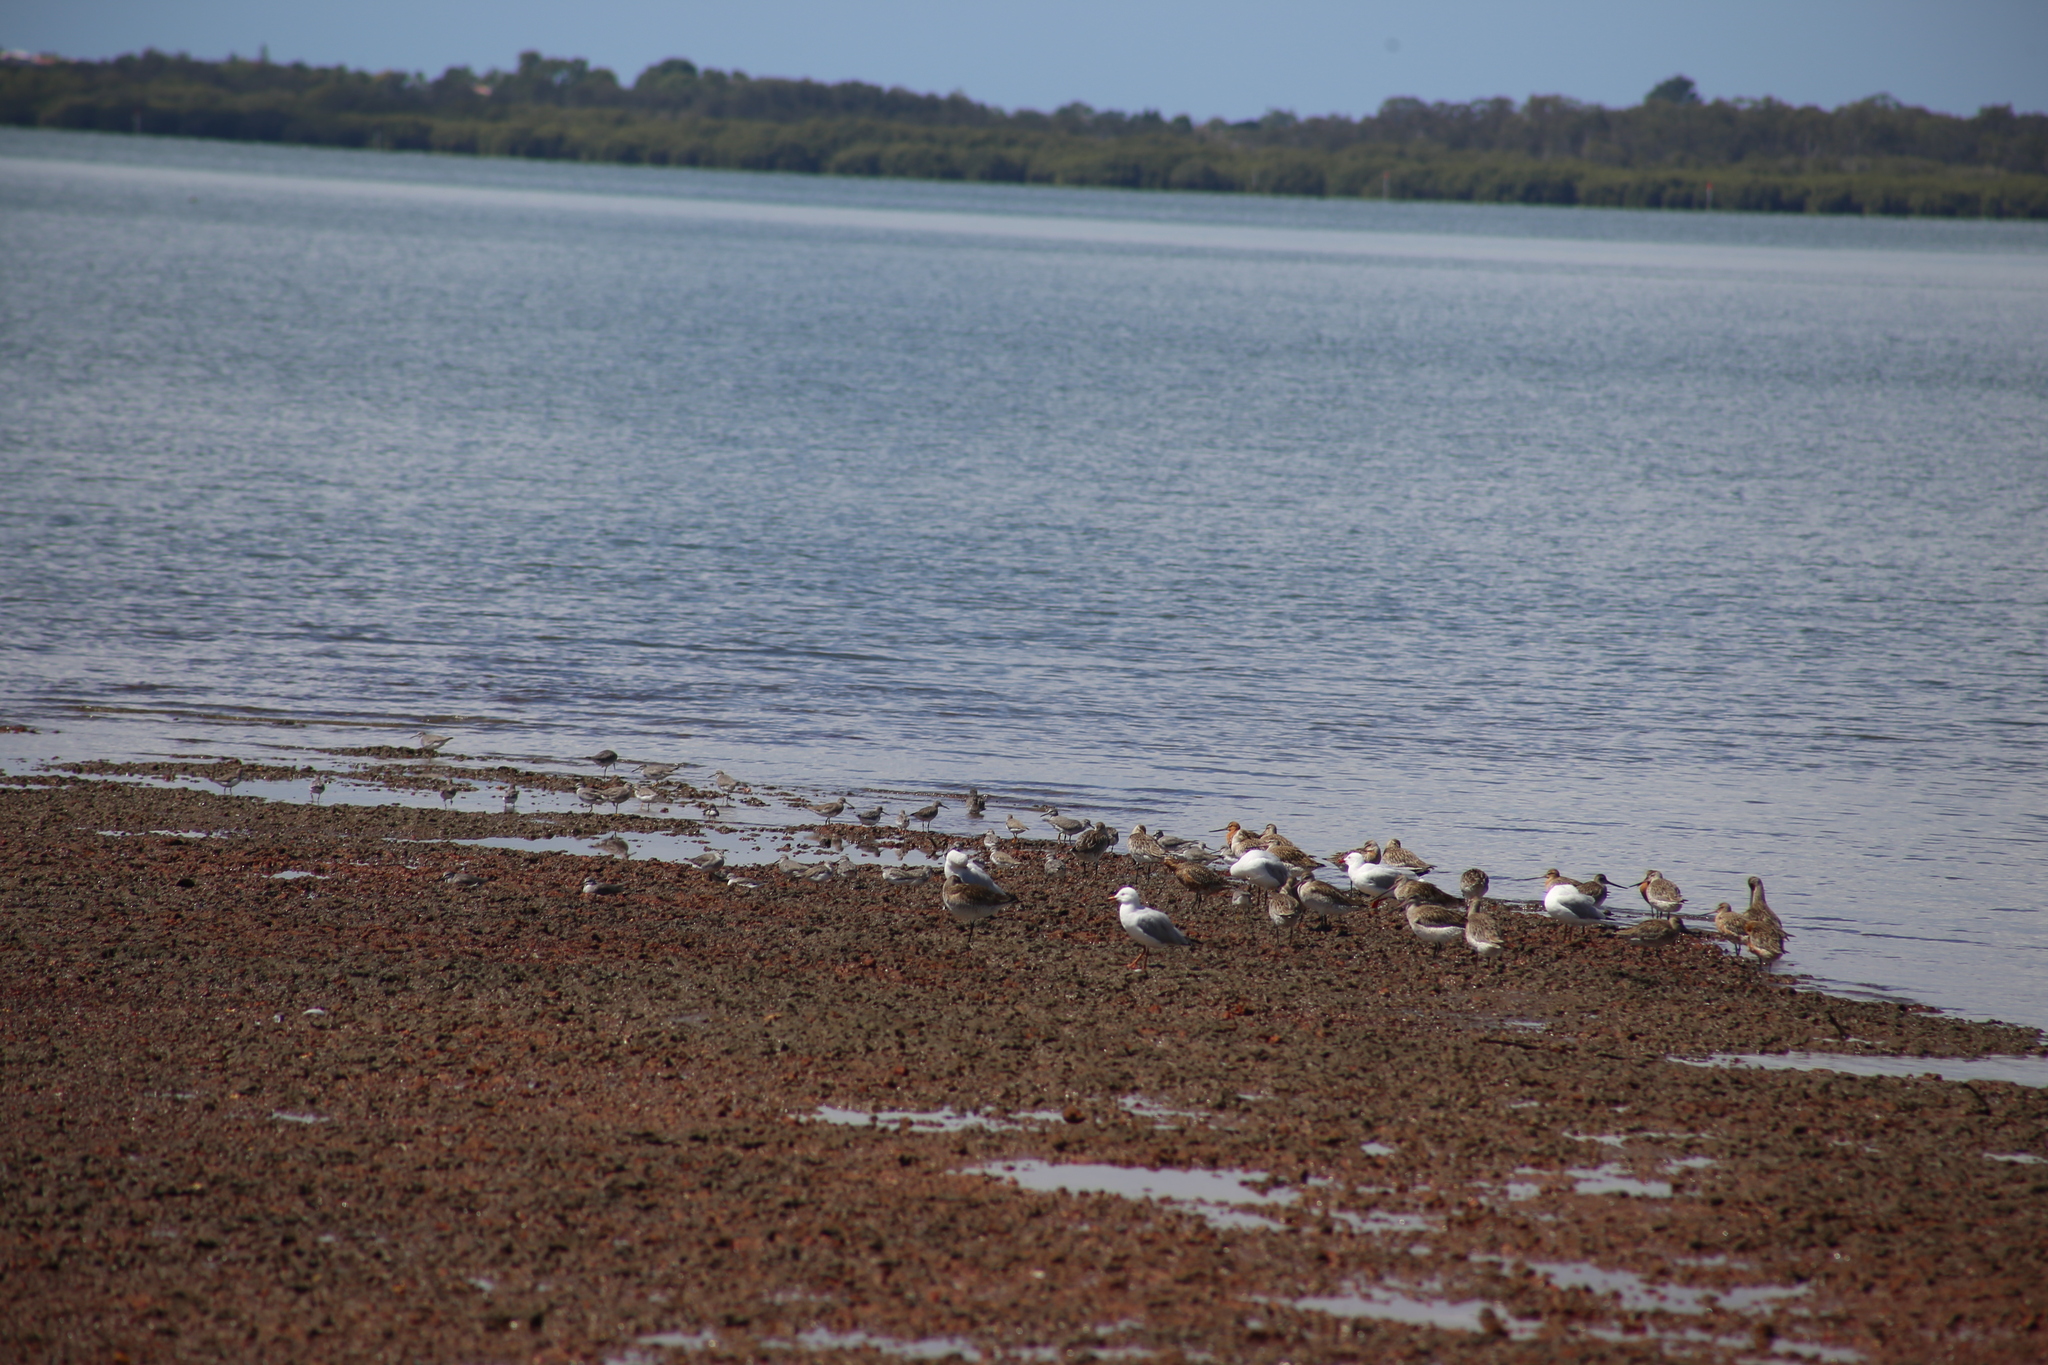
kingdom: Animalia
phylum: Chordata
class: Aves
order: Charadriiformes
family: Laridae
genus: Chroicocephalus
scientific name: Chroicocephalus novaehollandiae
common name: Silver gull
